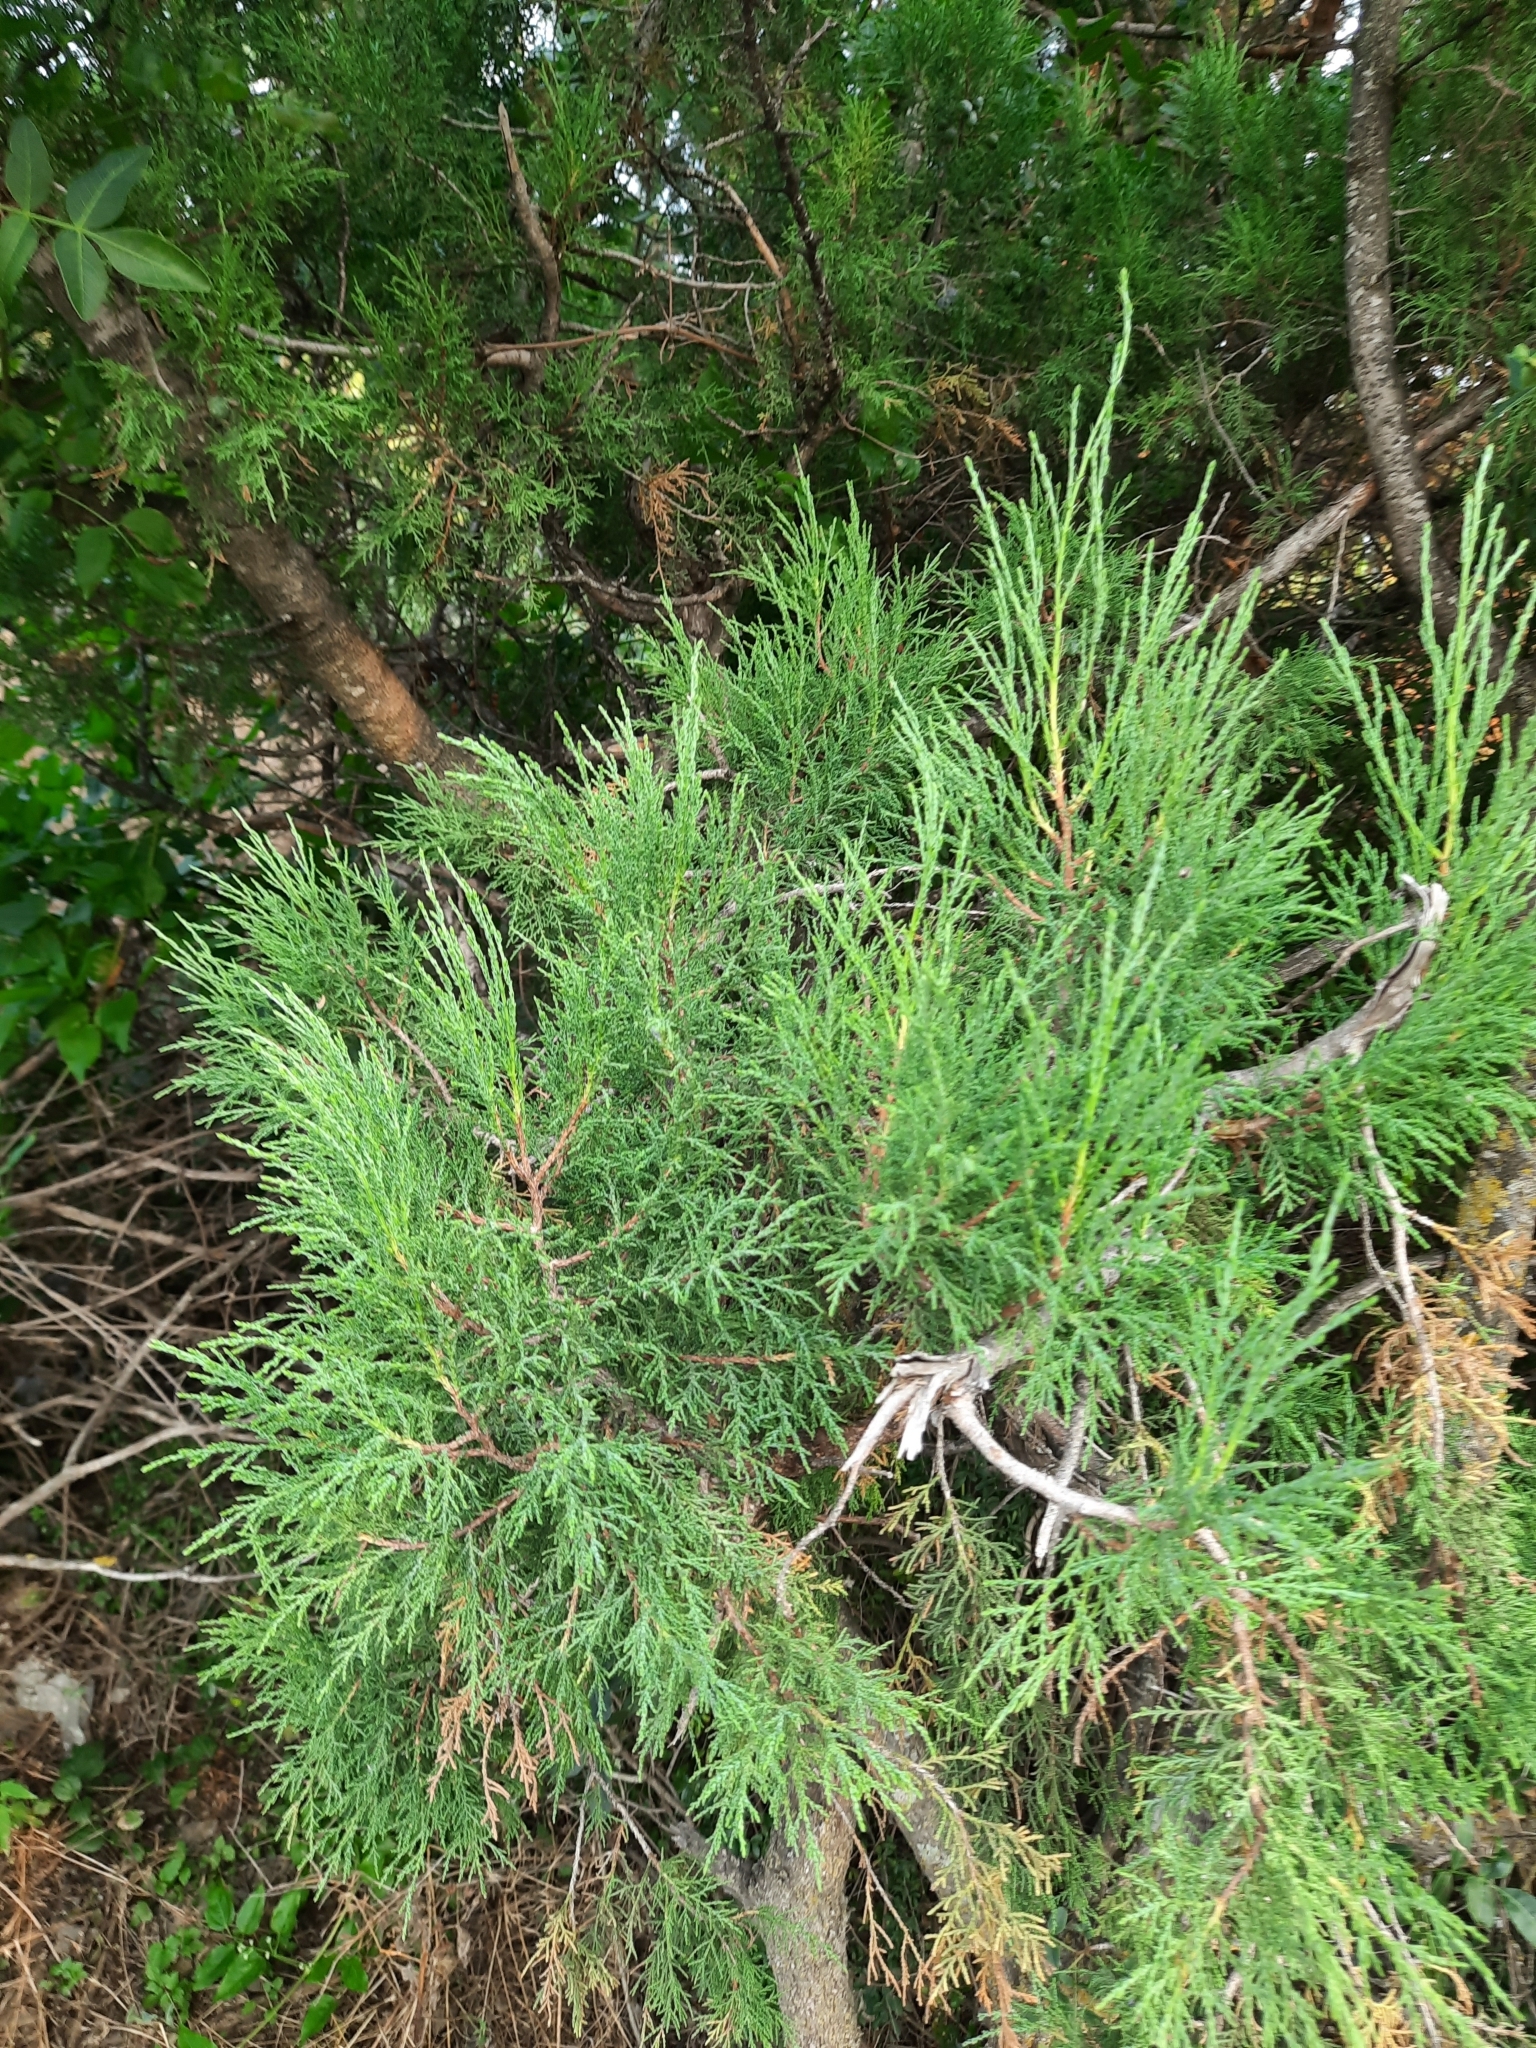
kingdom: Plantae
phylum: Tracheophyta
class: Pinopsida
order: Pinales
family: Cupressaceae
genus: Juniperus
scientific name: Juniperus excelsa
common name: Crimean juniper
